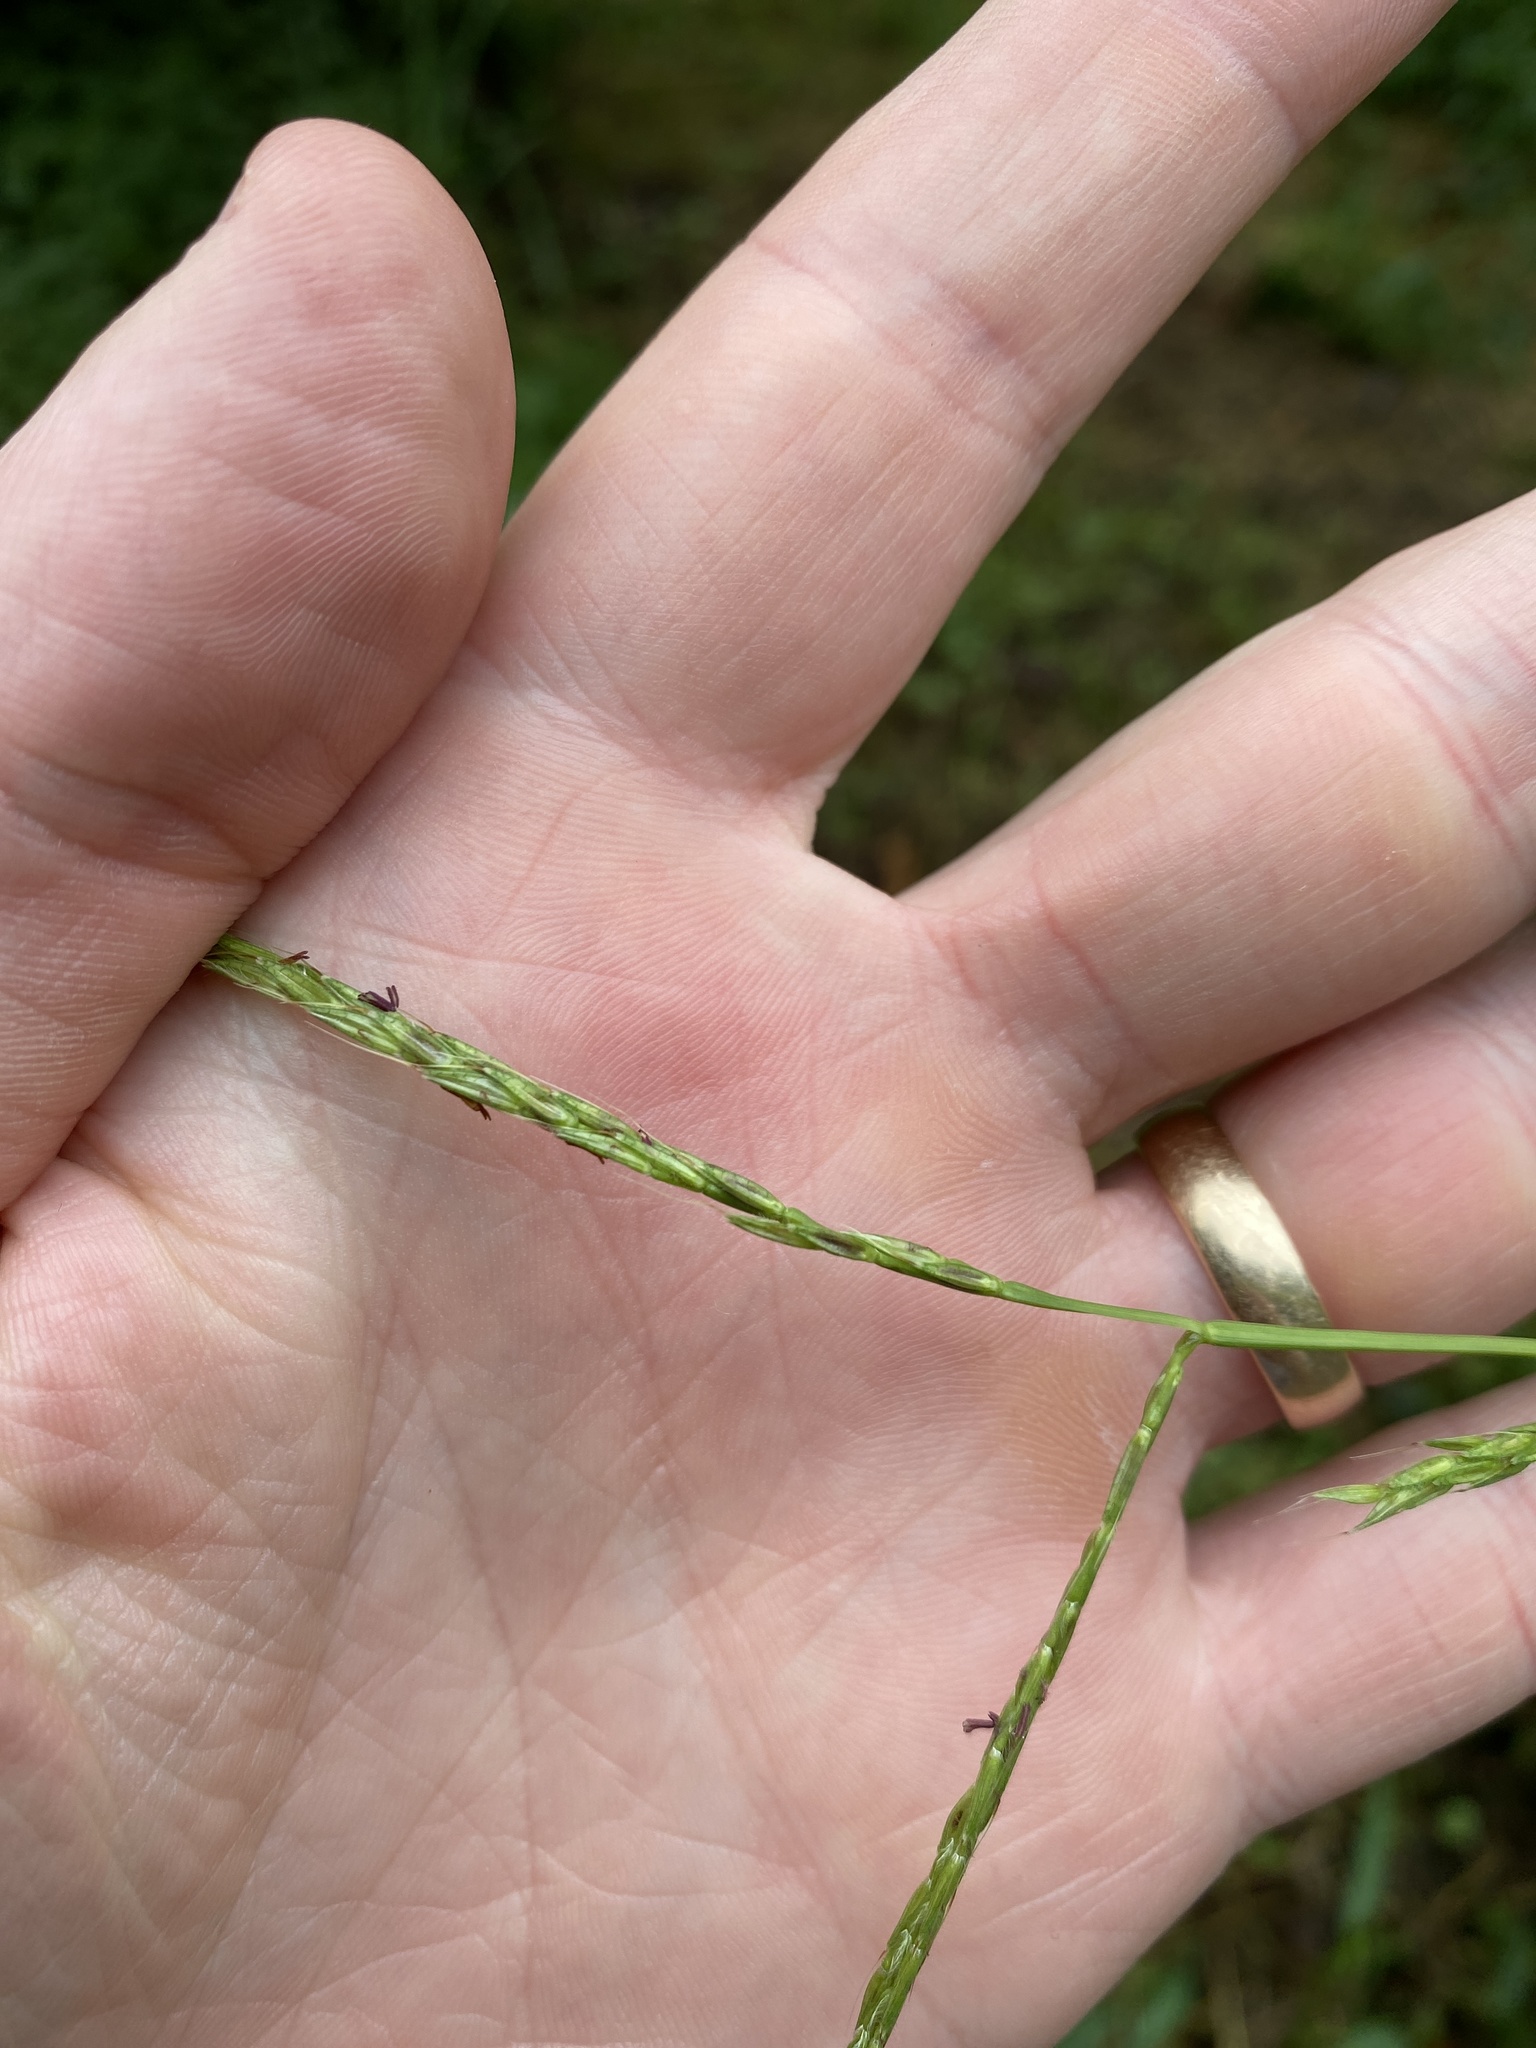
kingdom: Plantae
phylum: Tracheophyta
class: Liliopsida
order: Poales
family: Poaceae
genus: Microstegium
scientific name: Microstegium vimineum
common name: Japanese stiltgrass
